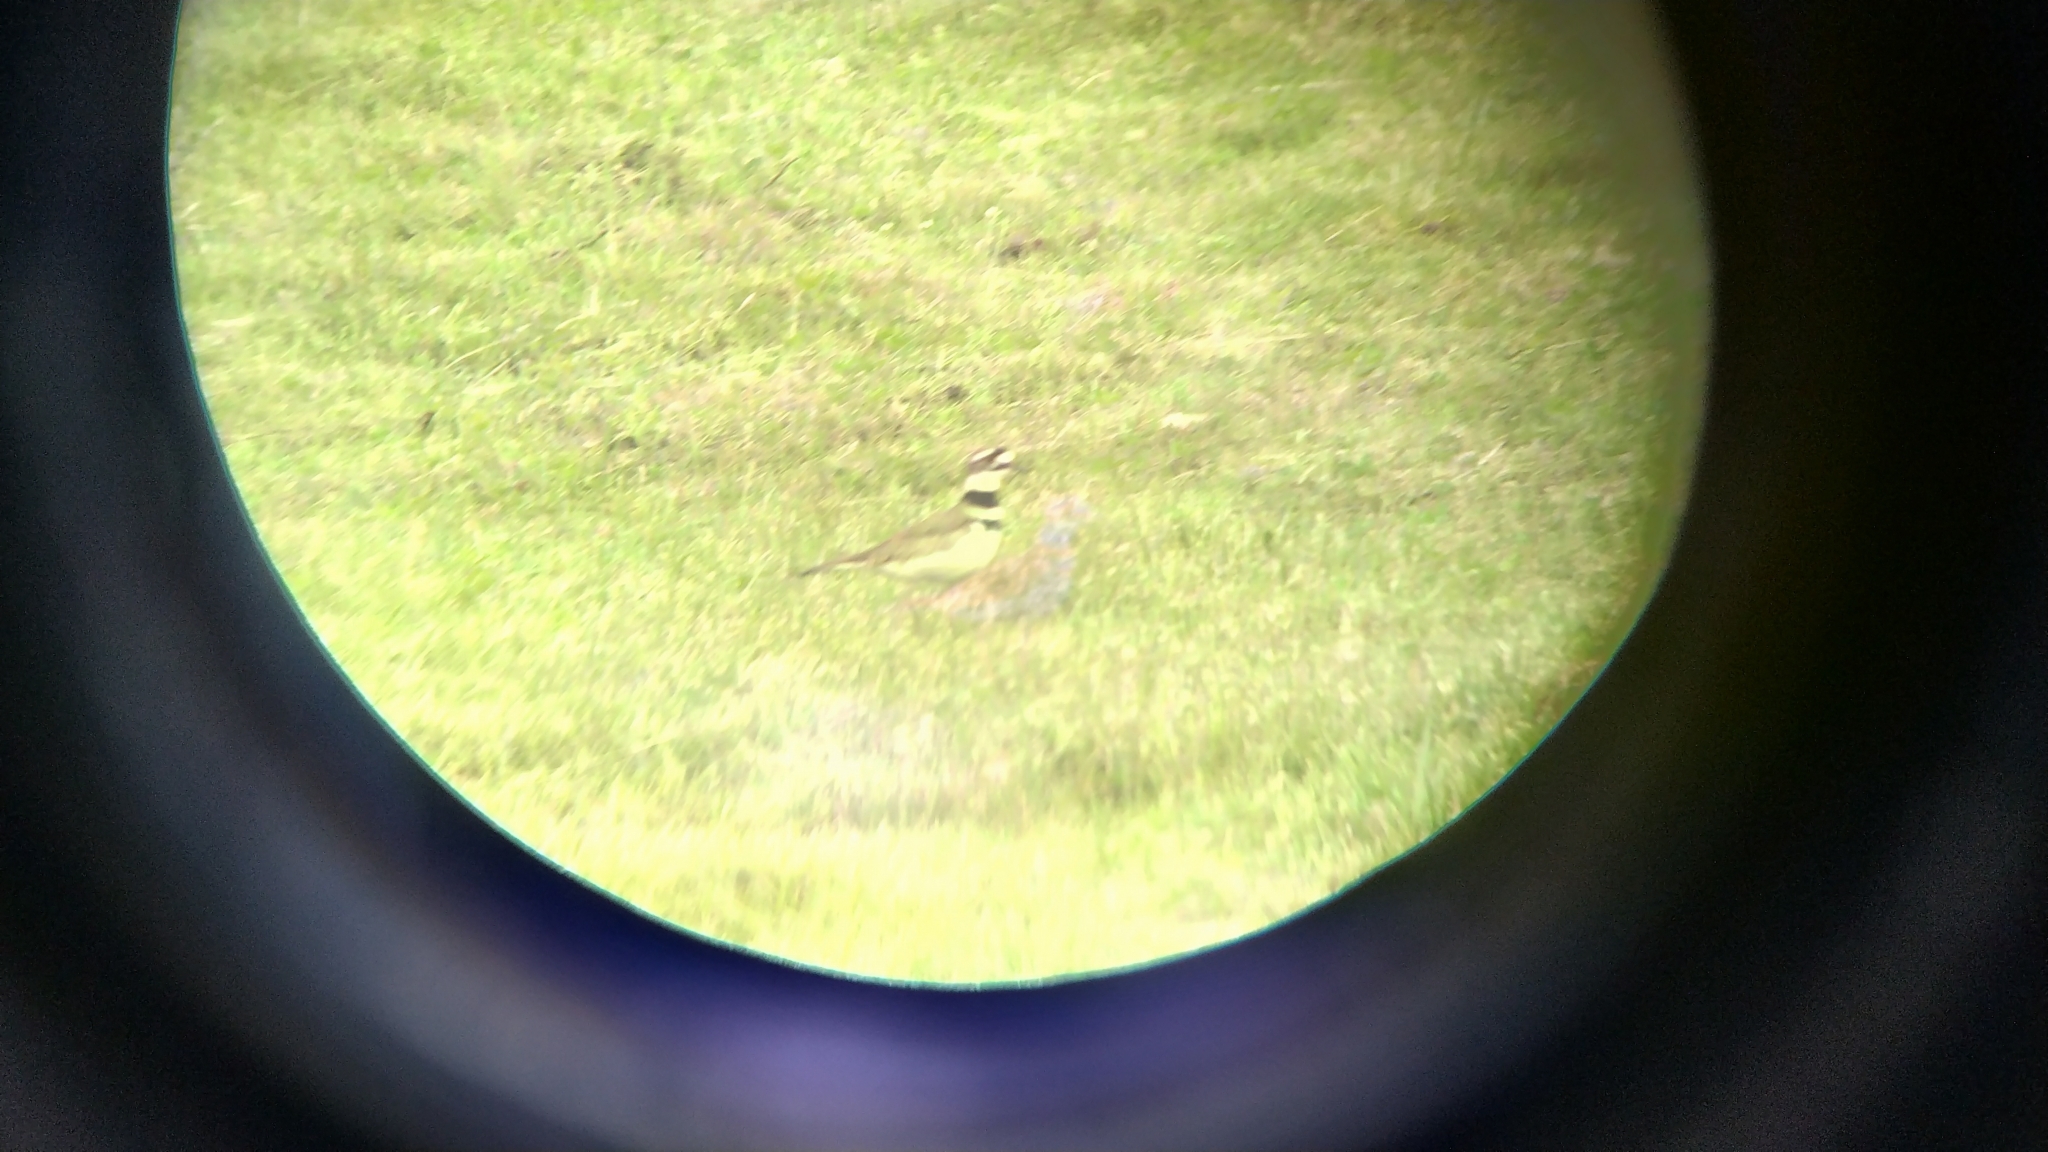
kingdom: Animalia
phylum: Chordata
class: Aves
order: Charadriiformes
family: Charadriidae
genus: Charadrius
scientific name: Charadrius vociferus
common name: Killdeer
